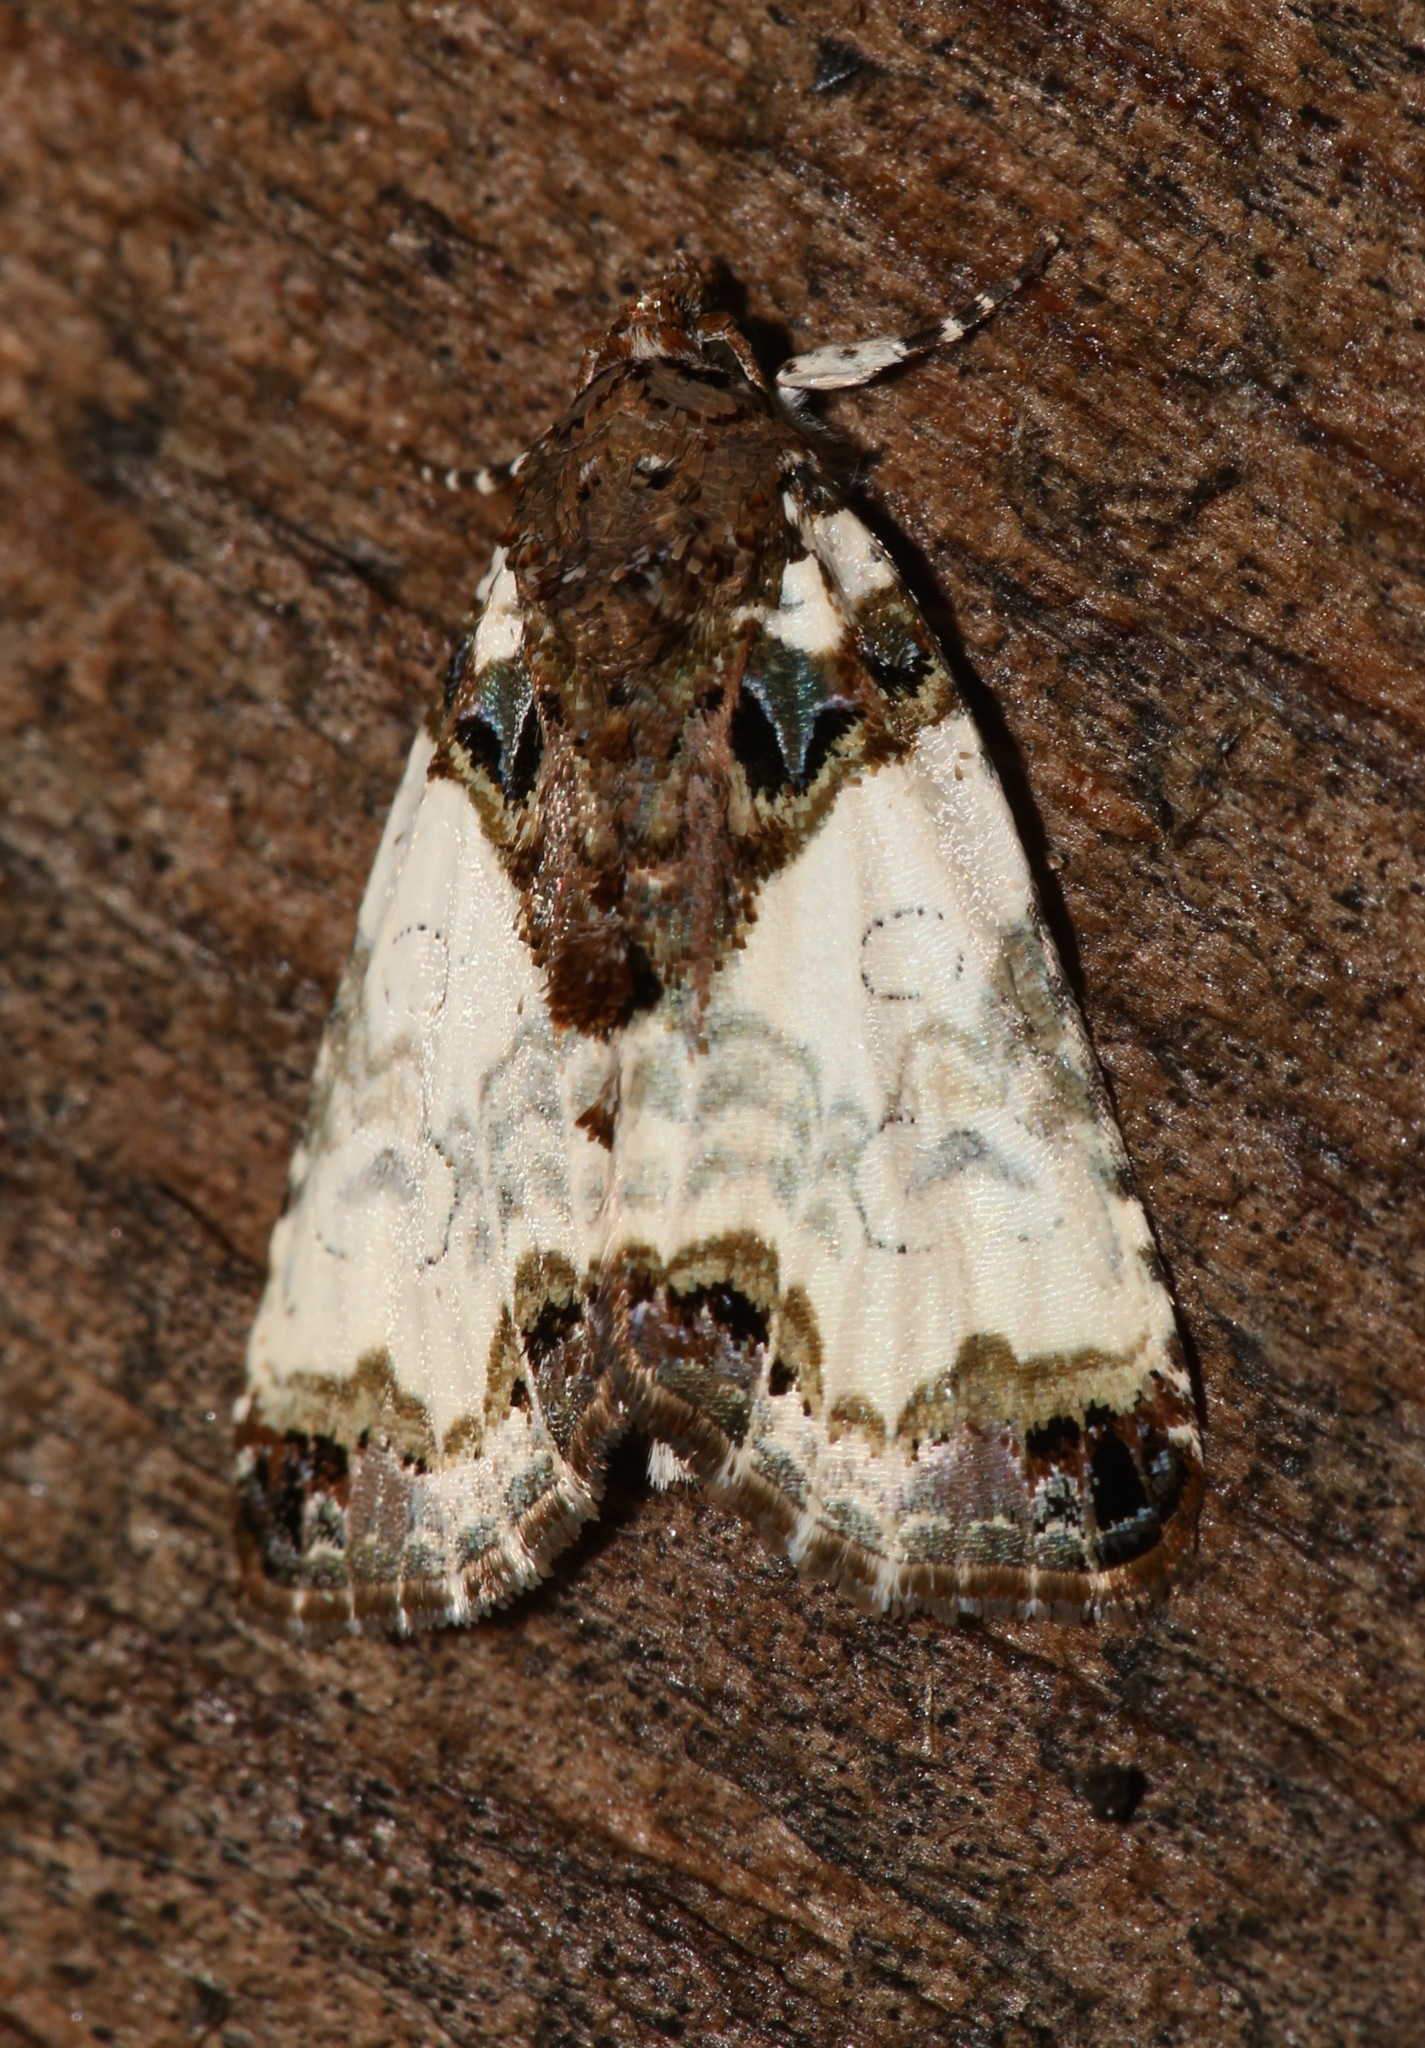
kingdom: Animalia
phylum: Arthropoda
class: Insecta
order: Lepidoptera
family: Noctuidae
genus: Cerma
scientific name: Cerma cerintha
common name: Tufted bird-dropping moth
